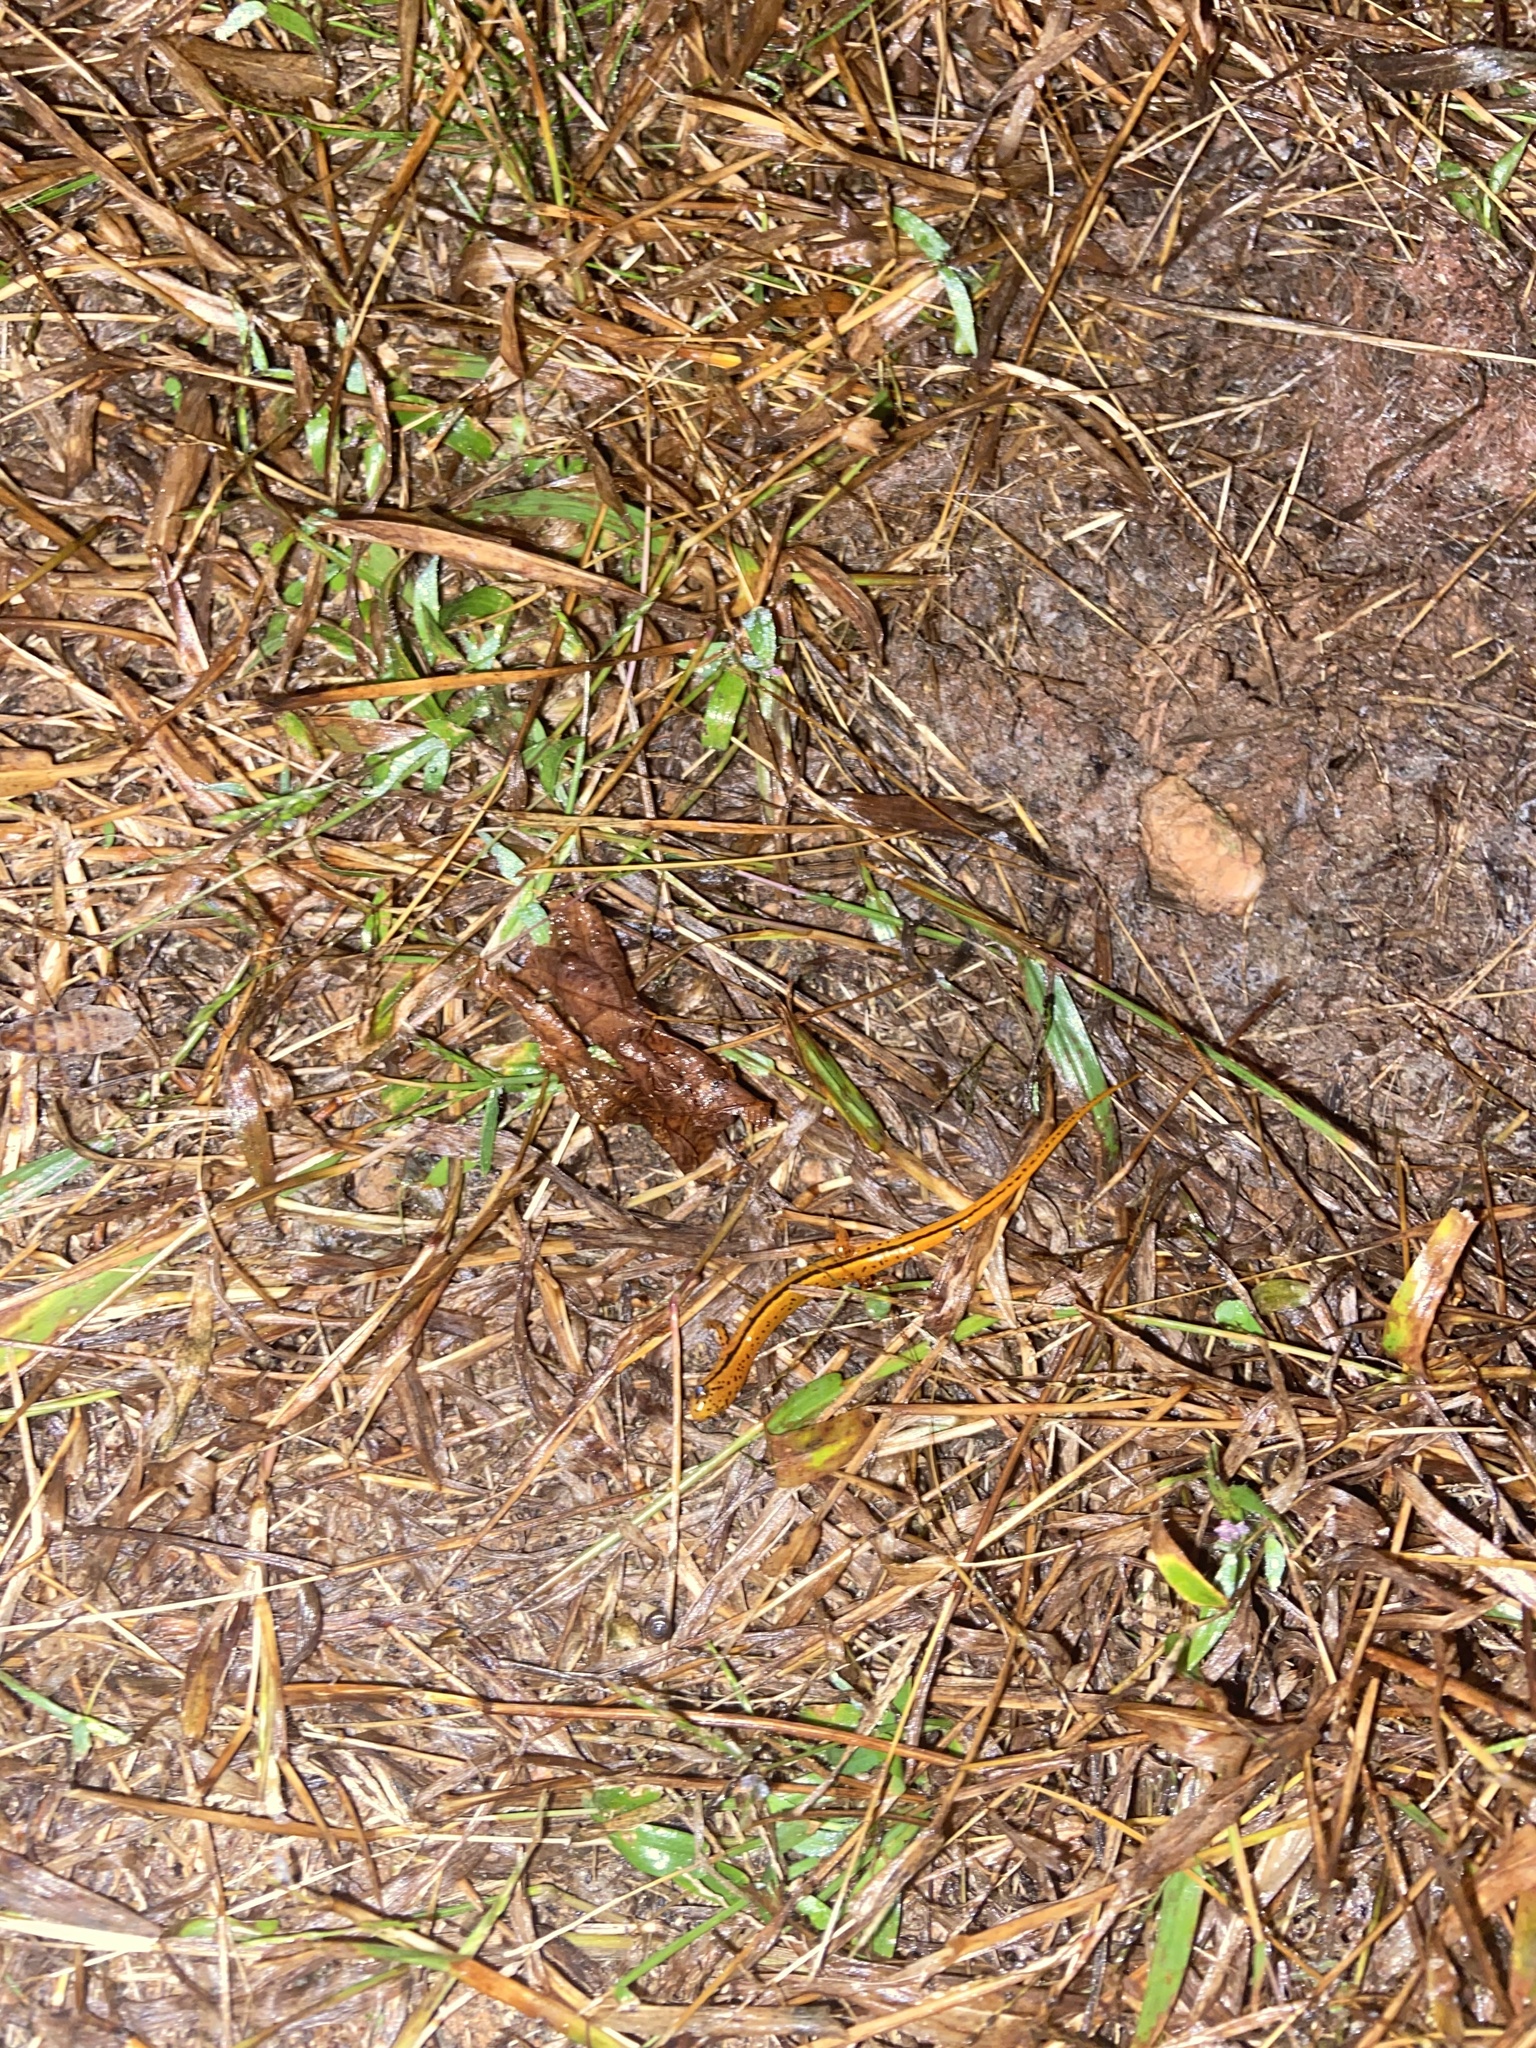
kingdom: Animalia
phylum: Chordata
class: Amphibia
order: Caudata
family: Plethodontidae
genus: Eurycea
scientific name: Eurycea cirrigera
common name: Southern two-lined salamander
